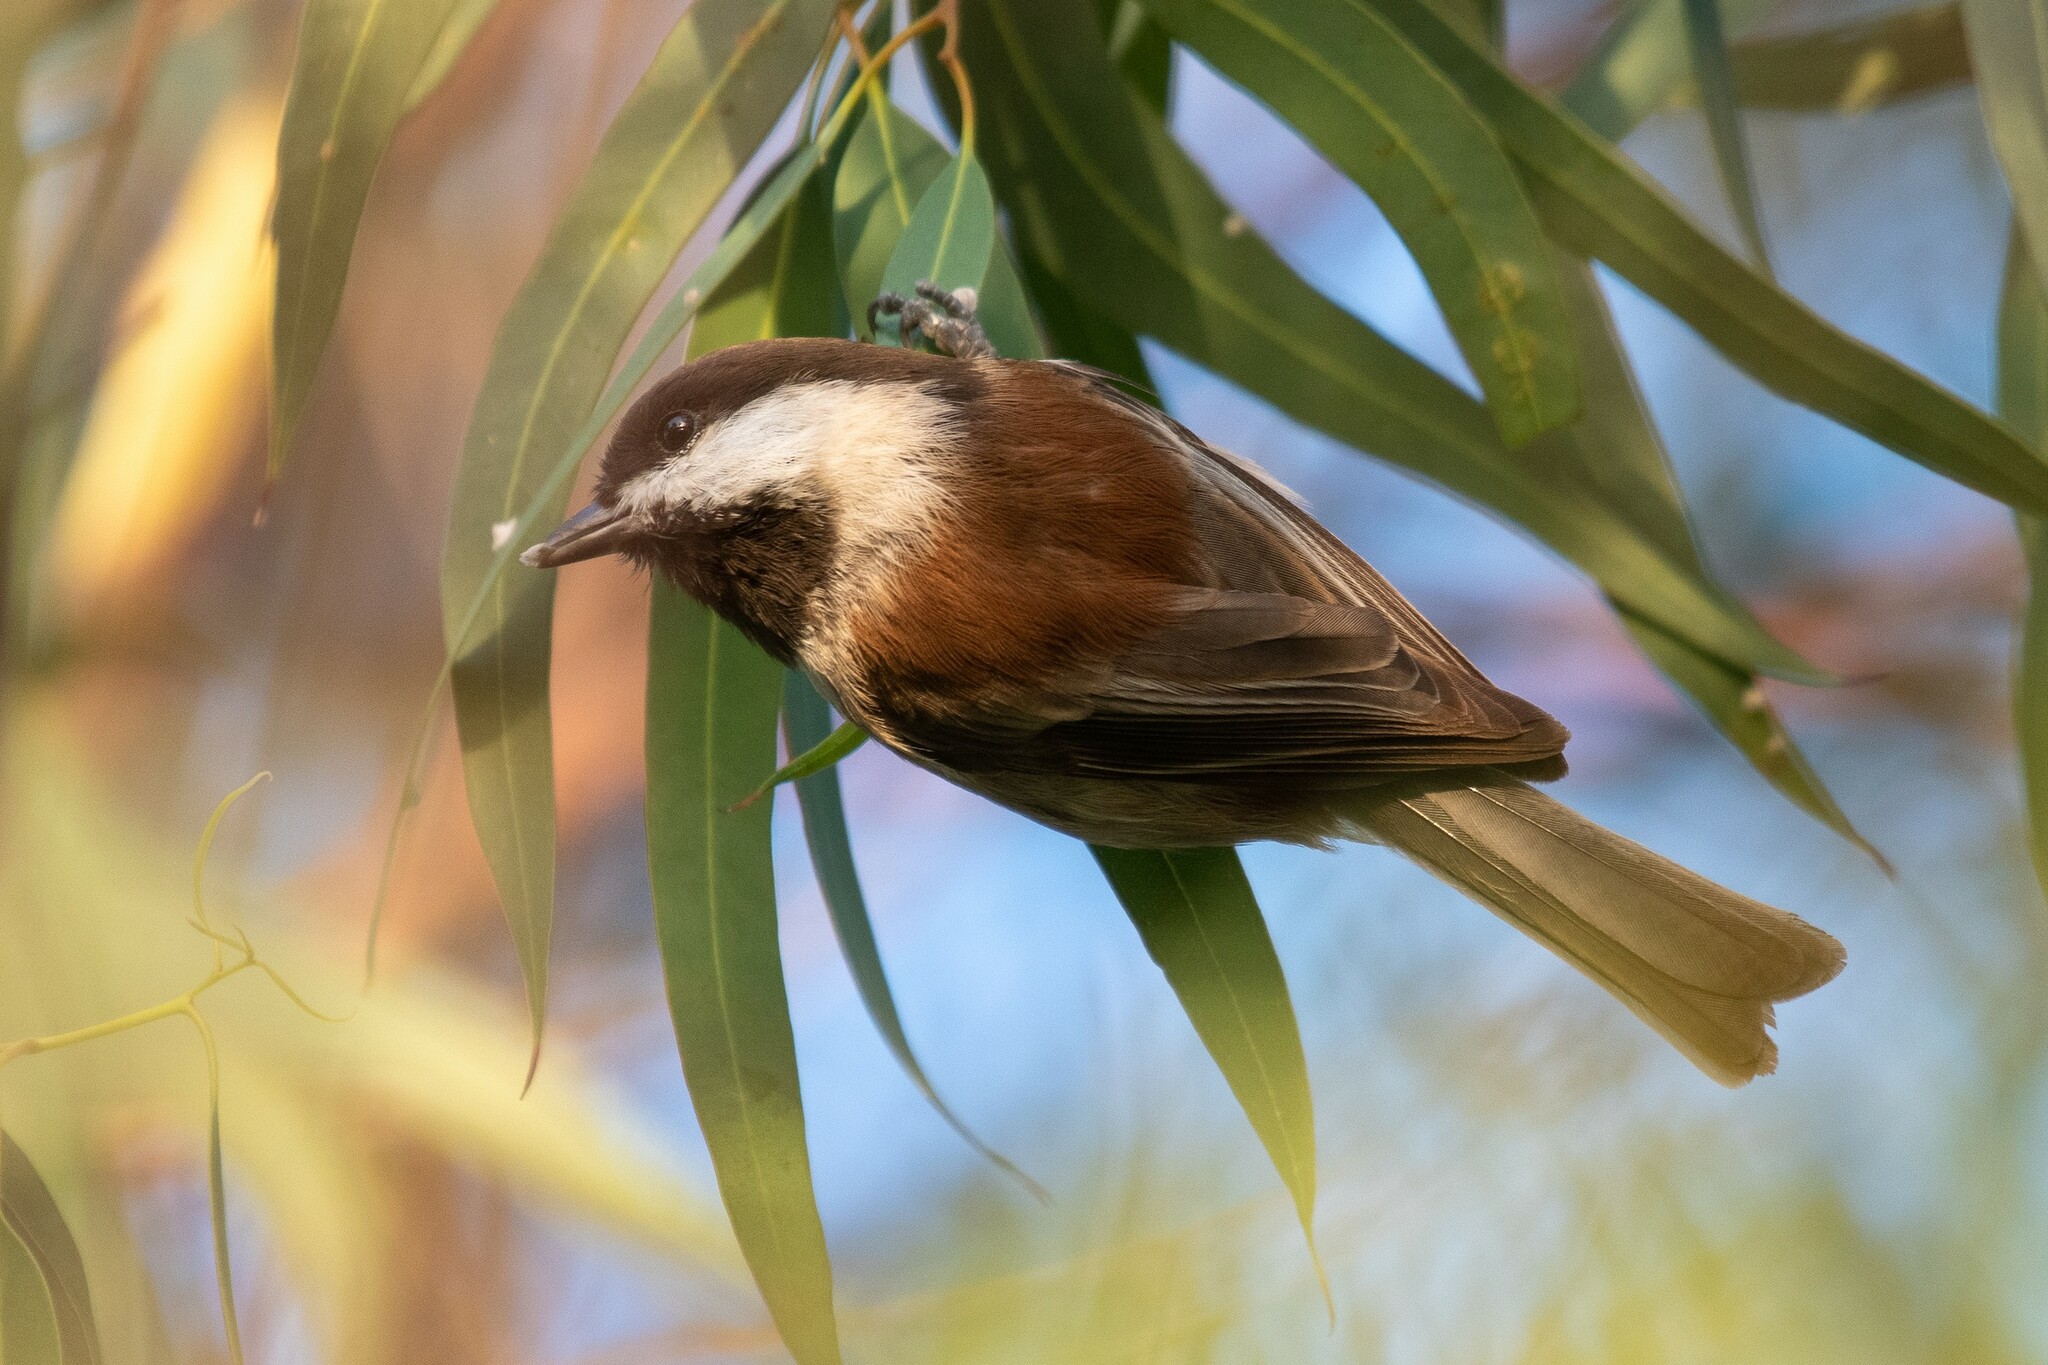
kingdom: Animalia
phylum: Chordata
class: Aves
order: Passeriformes
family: Paridae
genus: Poecile
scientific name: Poecile rufescens
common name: Chestnut-backed chickadee
